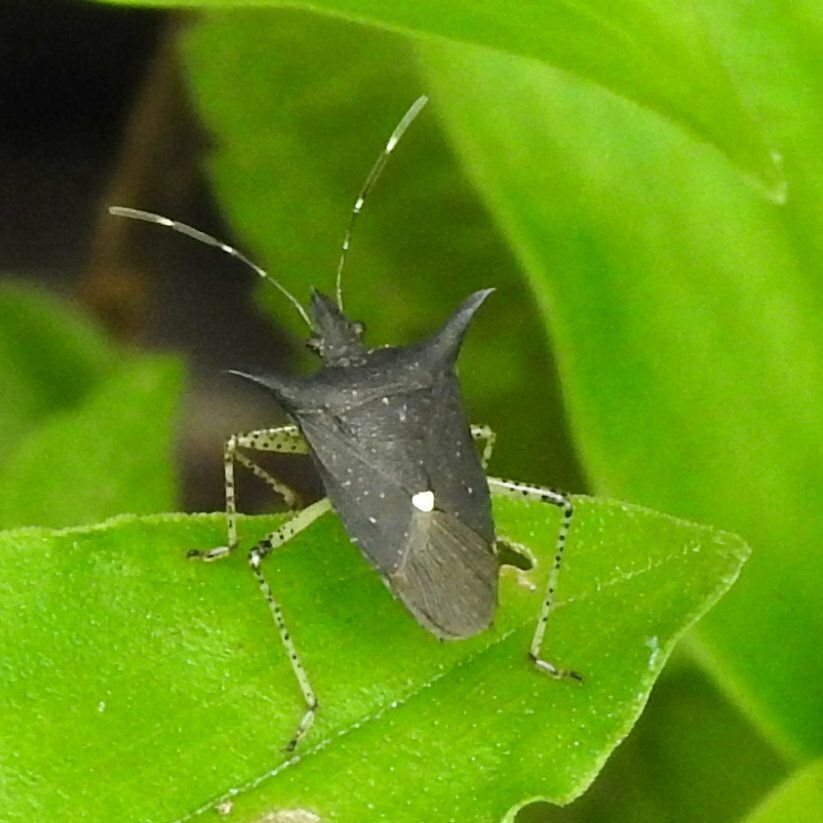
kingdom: Animalia
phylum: Arthropoda
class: Insecta
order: Hemiptera
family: Pentatomidae
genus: Proxys
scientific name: Proxys victor
